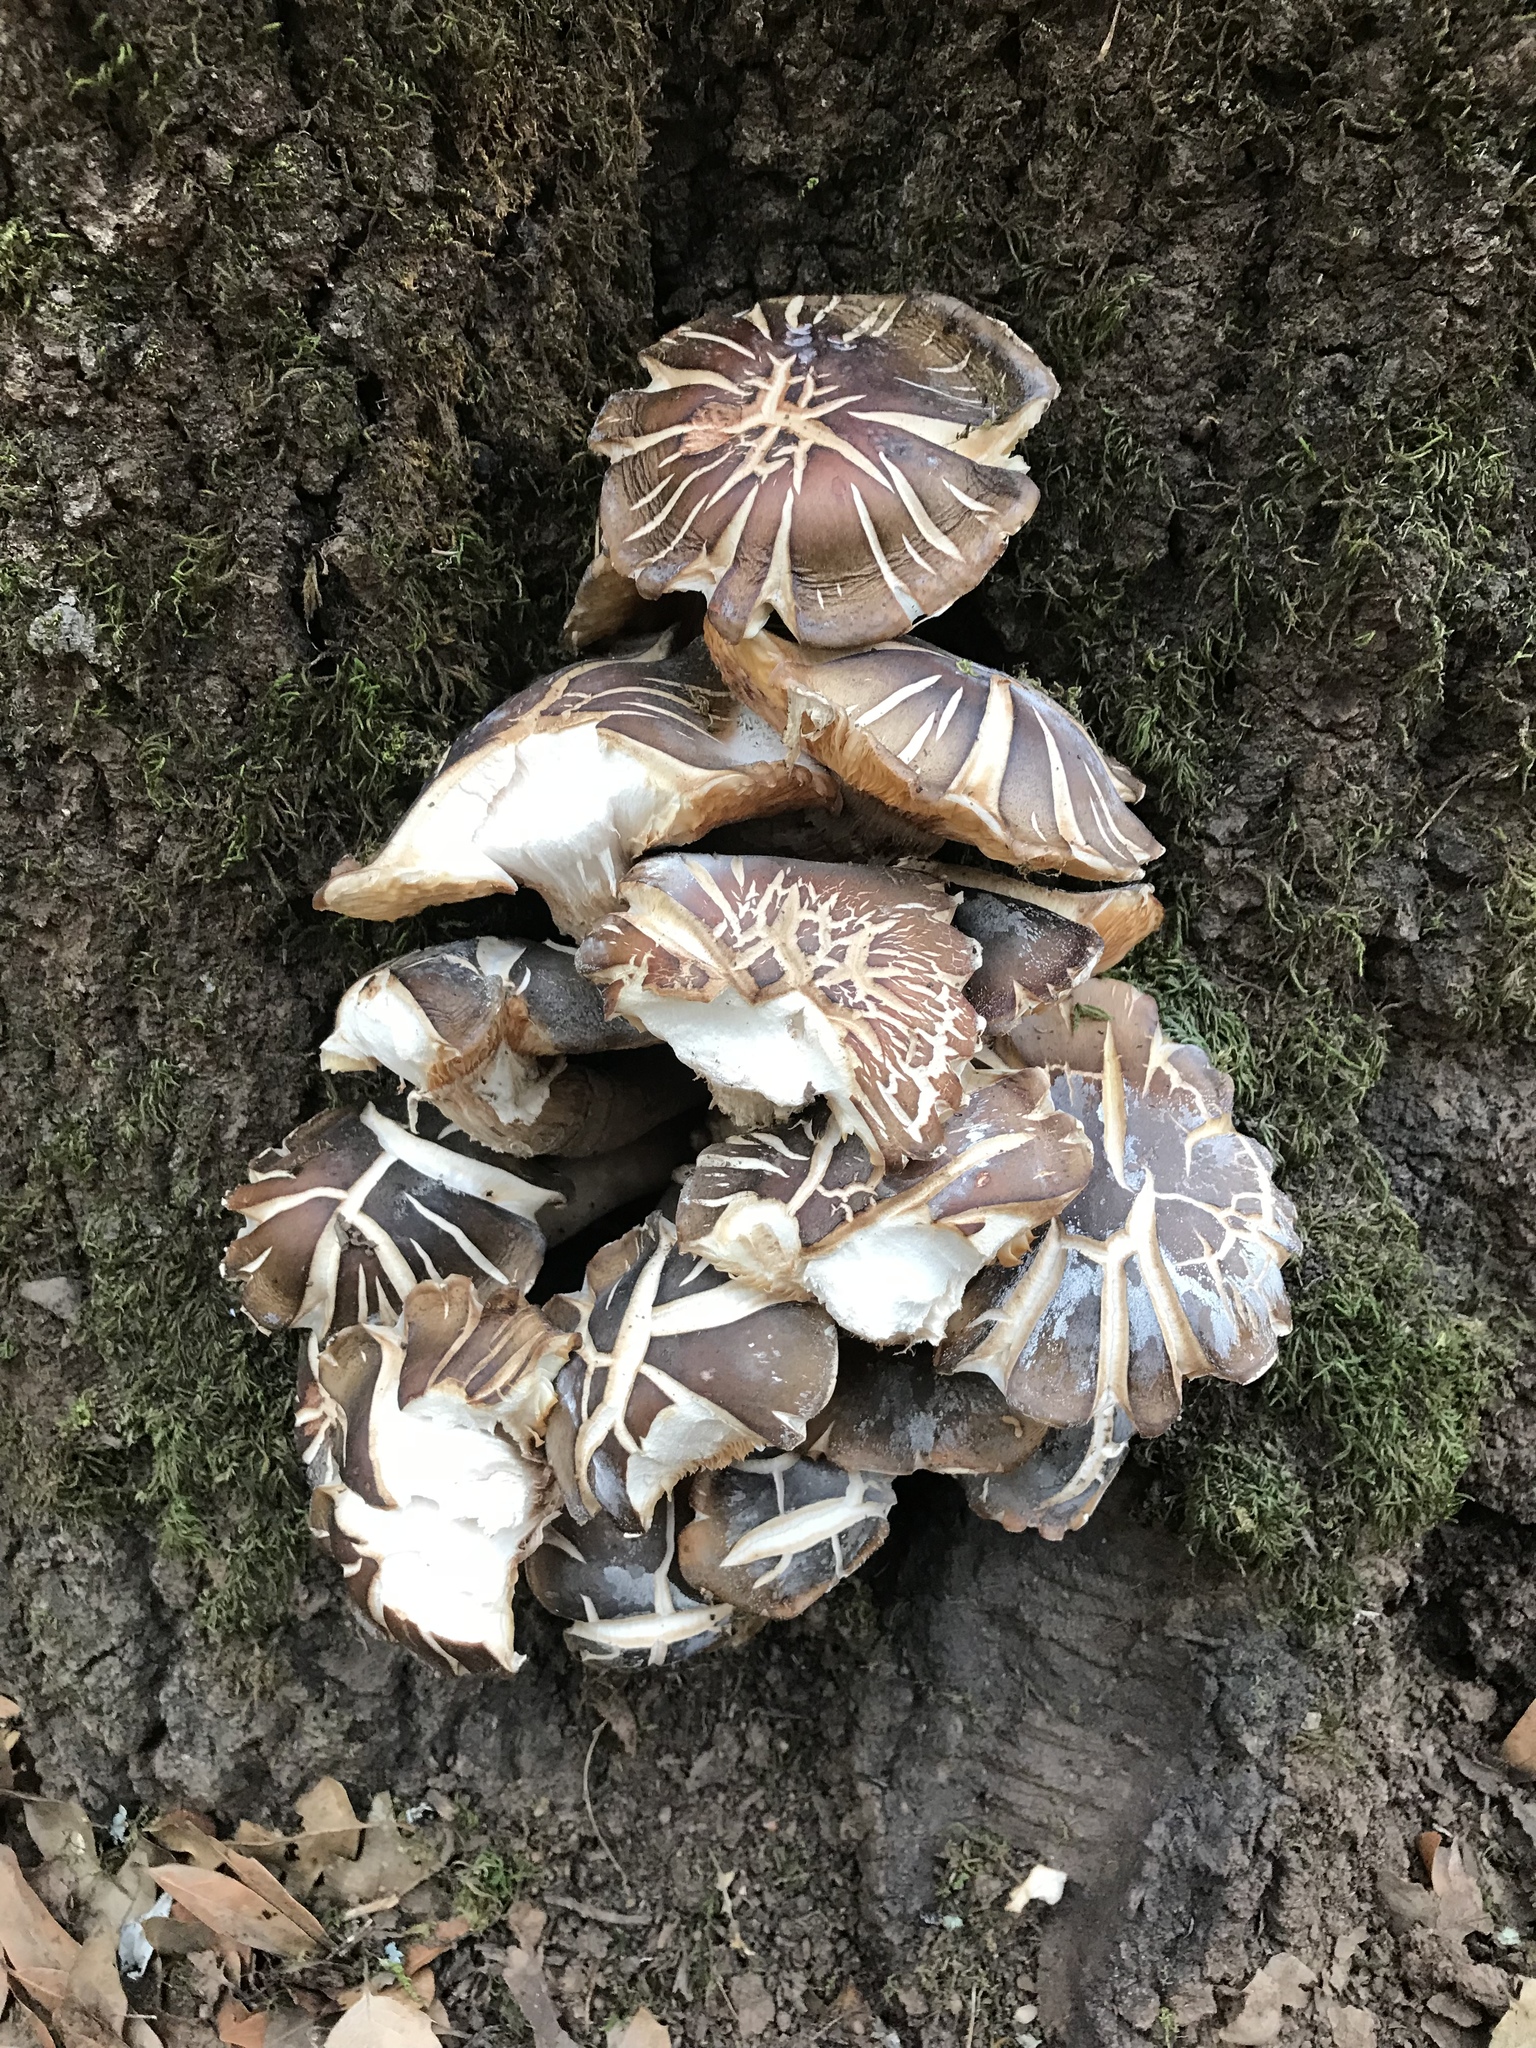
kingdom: Fungi
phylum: Basidiomycota
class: Agaricomycetes
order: Agaricales
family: Physalacriaceae
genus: Armillaria
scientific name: Armillaria mellea
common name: Honey fungus
